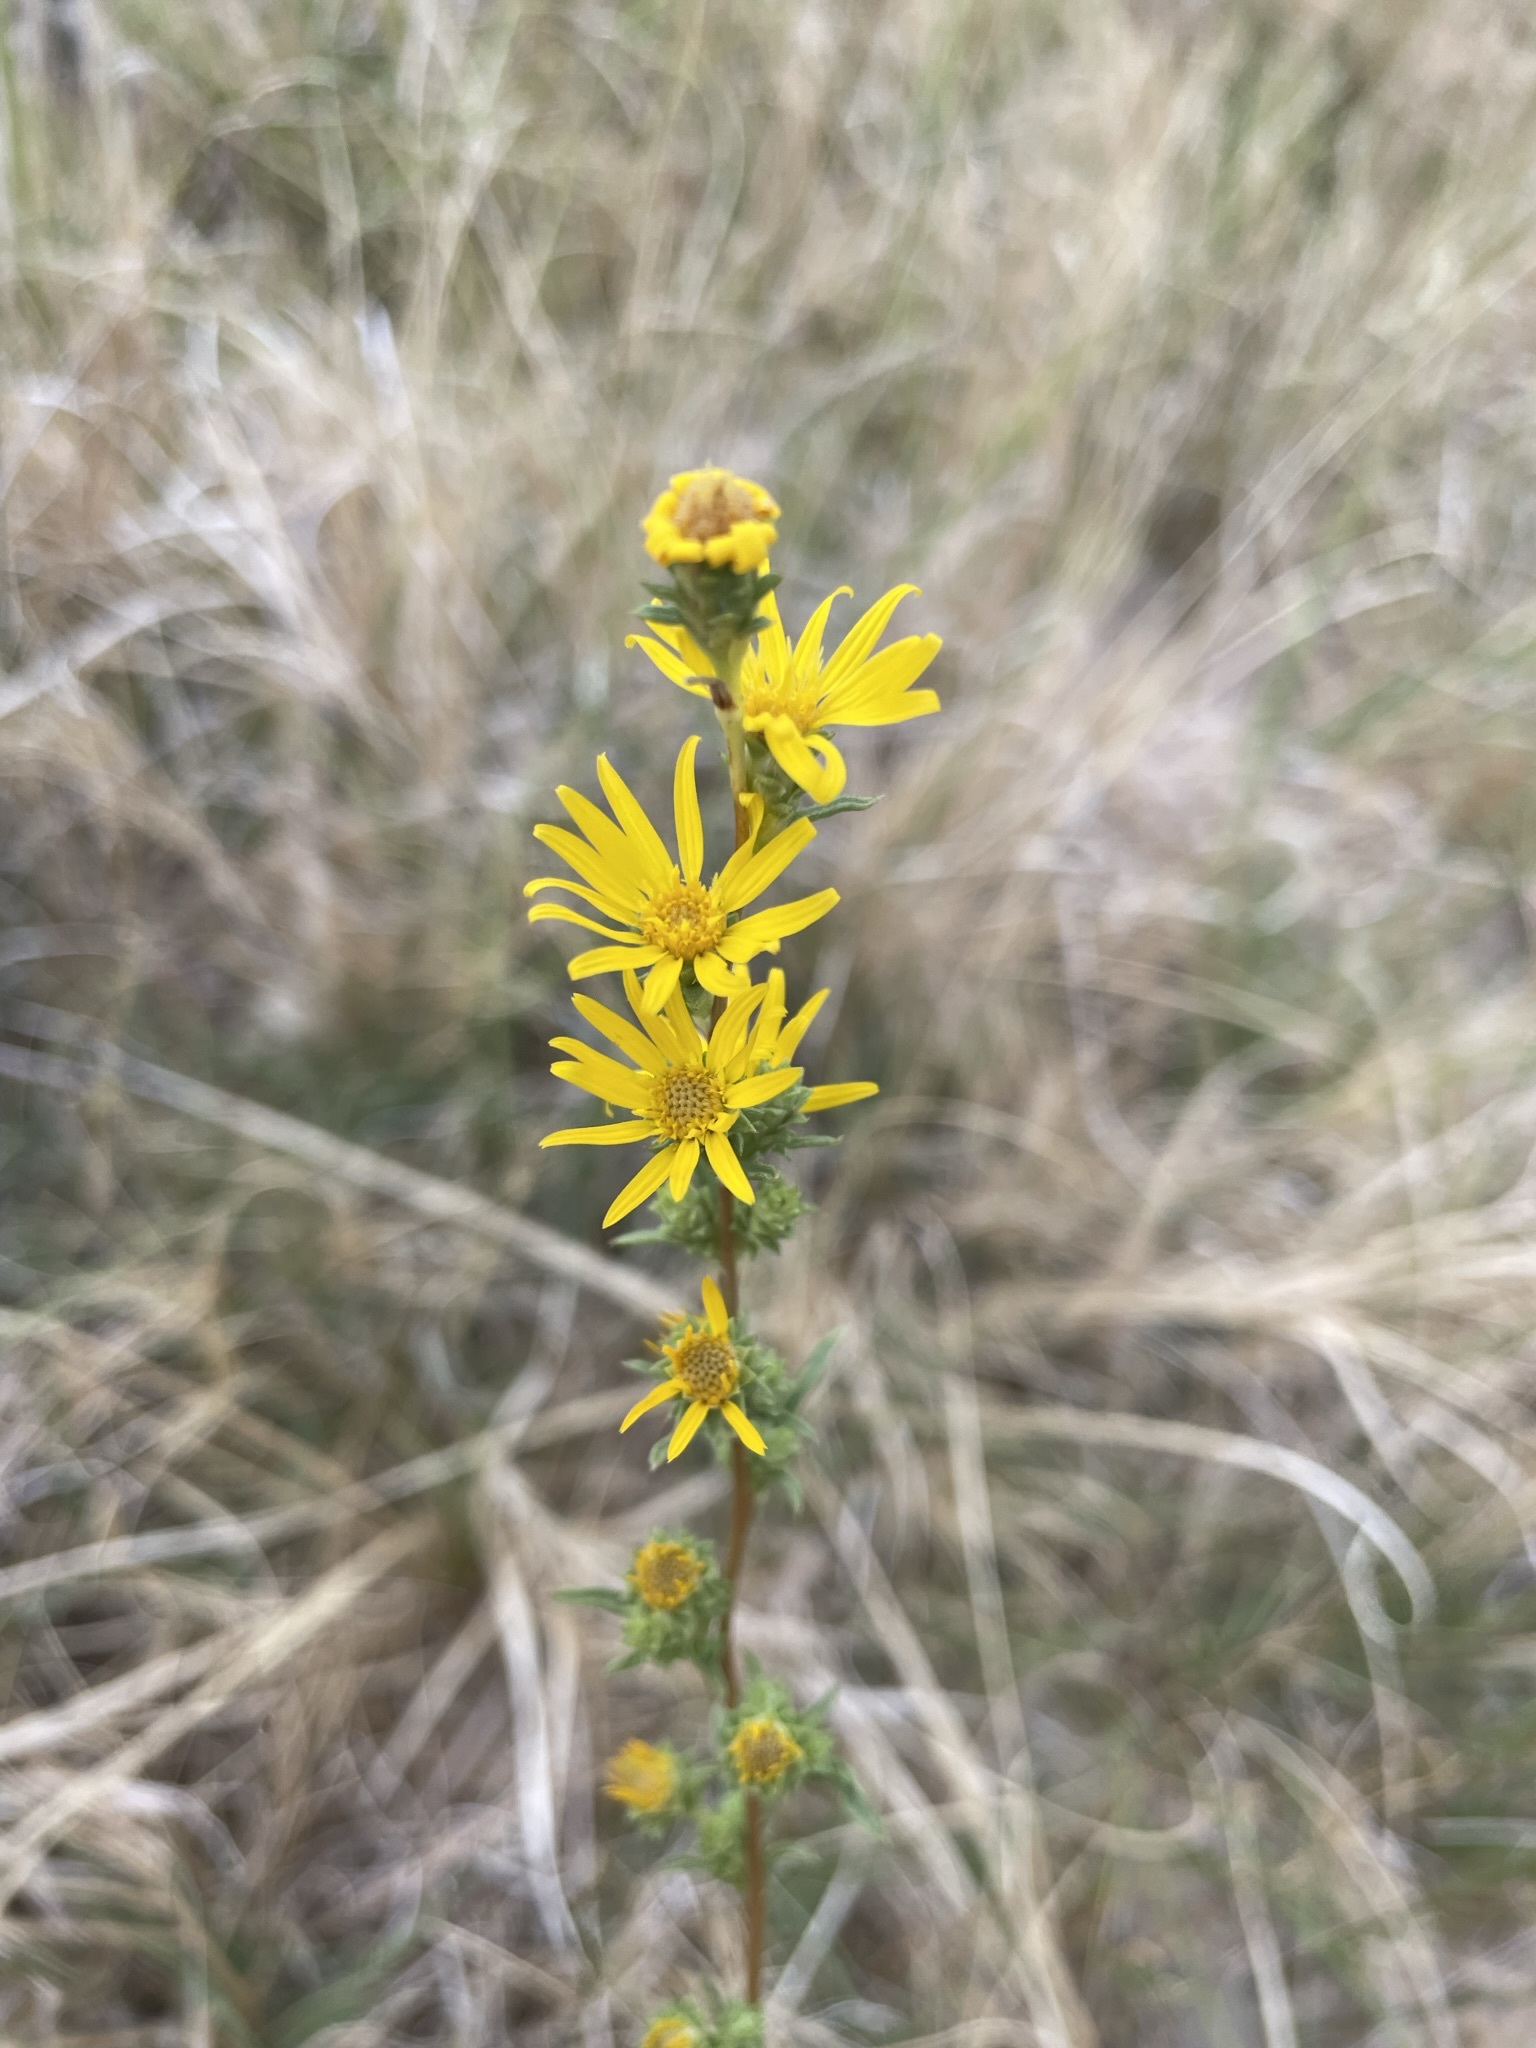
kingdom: Plantae
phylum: Tracheophyta
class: Magnoliopsida
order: Asterales
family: Asteraceae
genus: Pyrrocoma
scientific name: Pyrrocoma racemosa
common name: Clustered goldenweed
